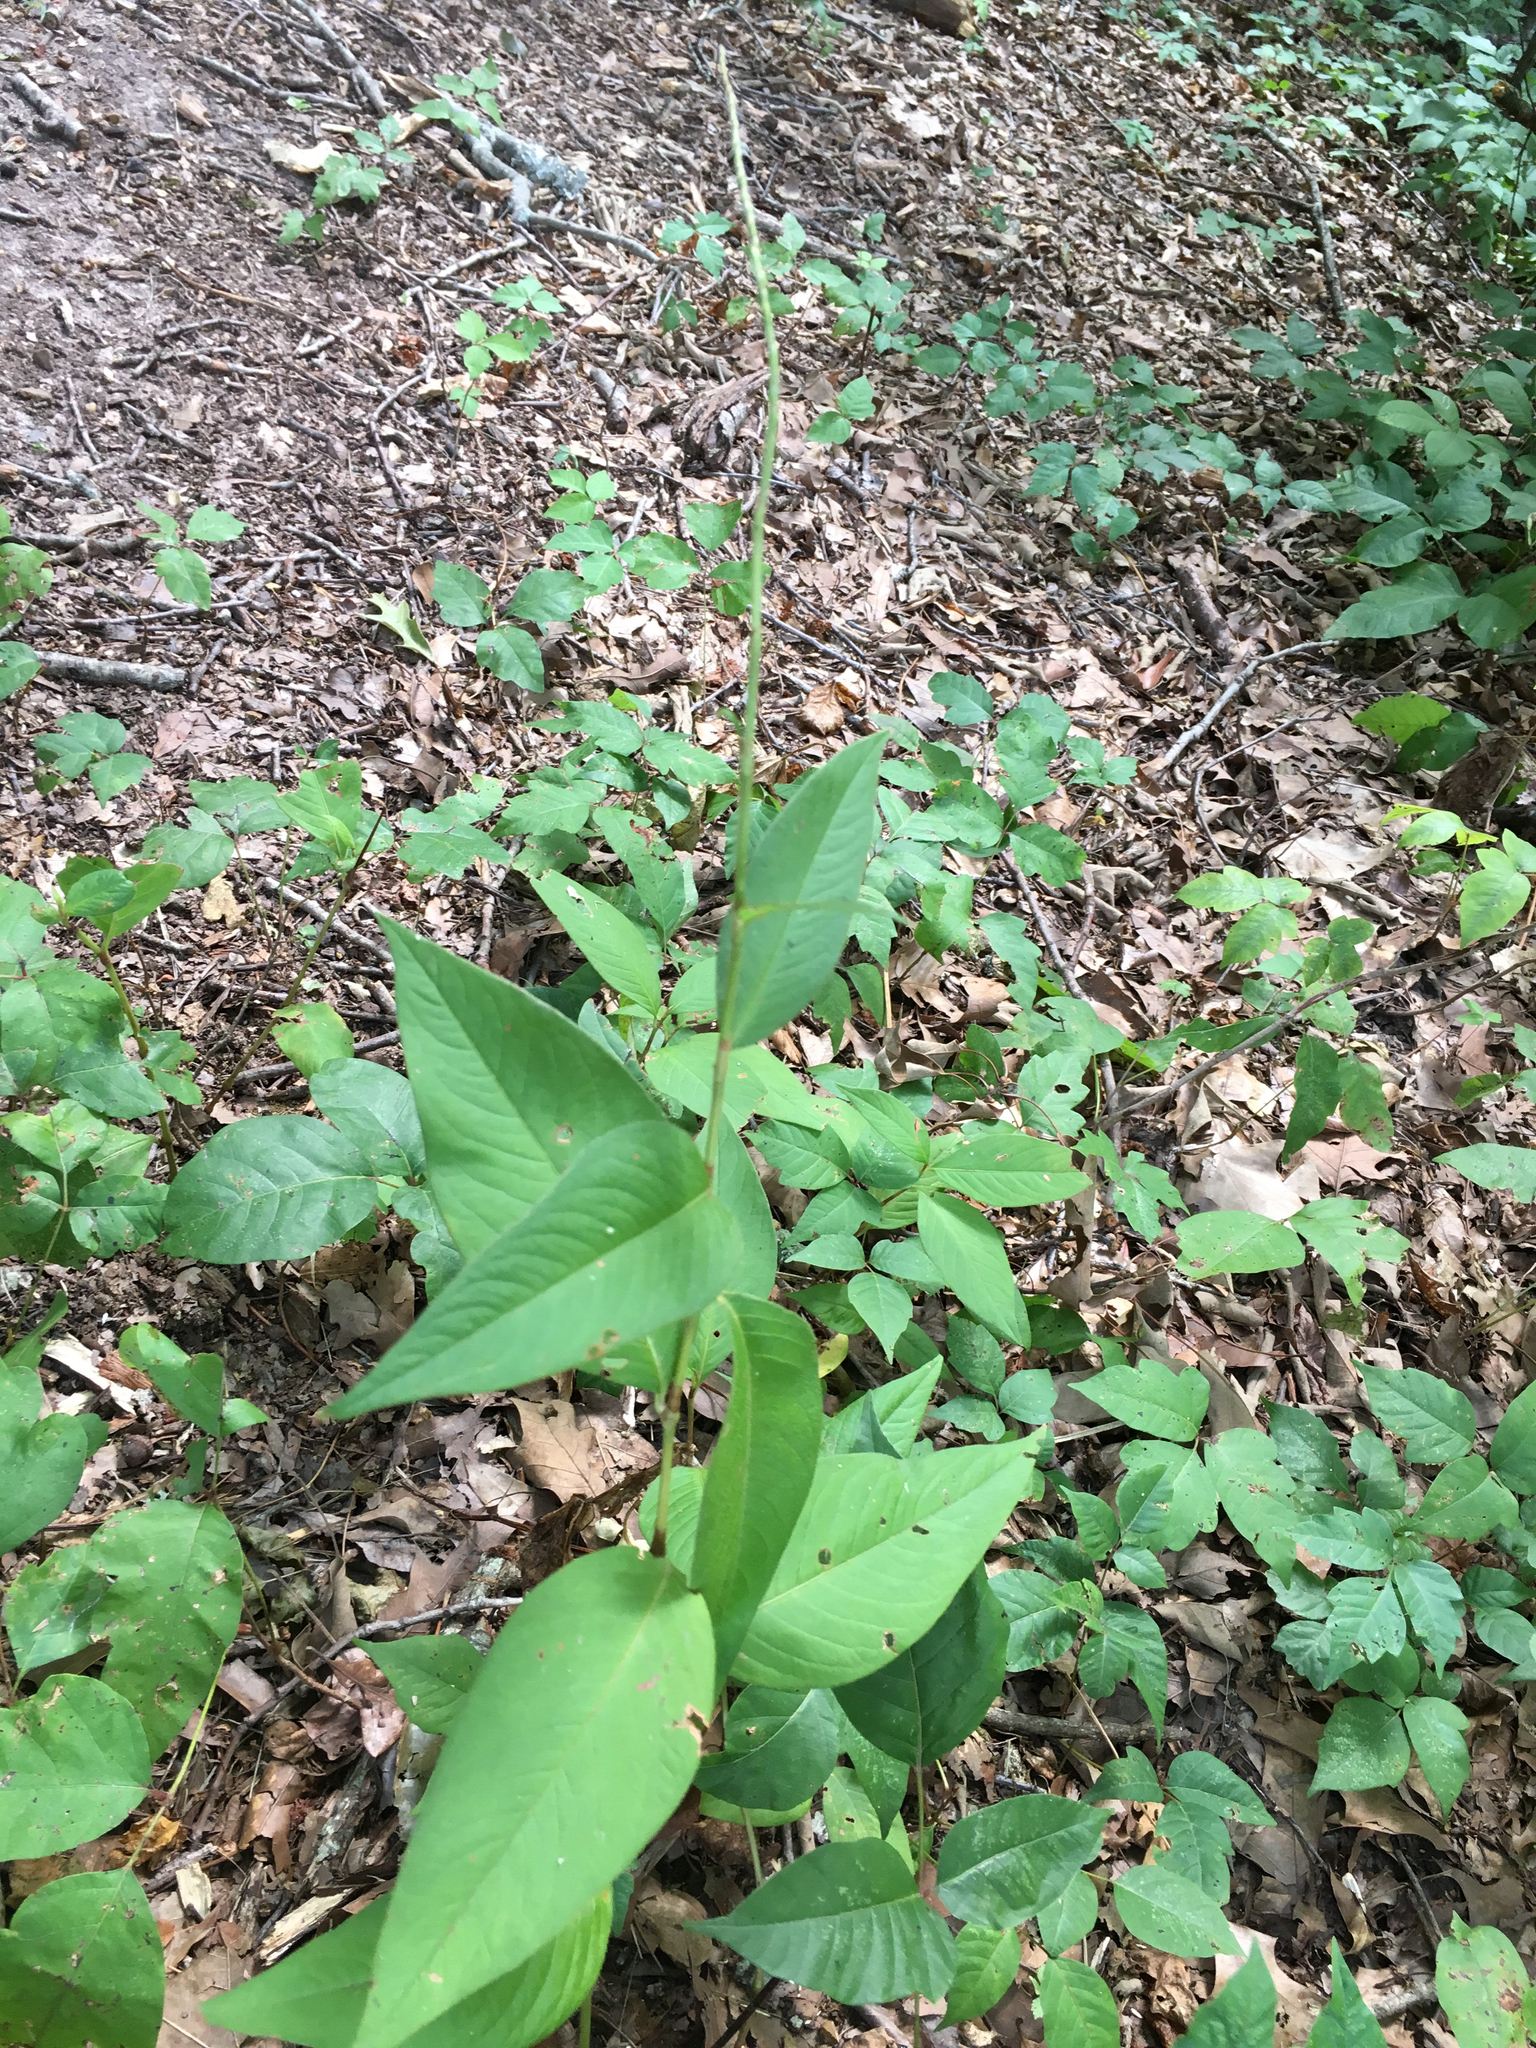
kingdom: Plantae
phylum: Tracheophyta
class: Magnoliopsida
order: Caryophyllales
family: Polygonaceae
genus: Persicaria
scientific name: Persicaria virginiana
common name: Jumpseed
